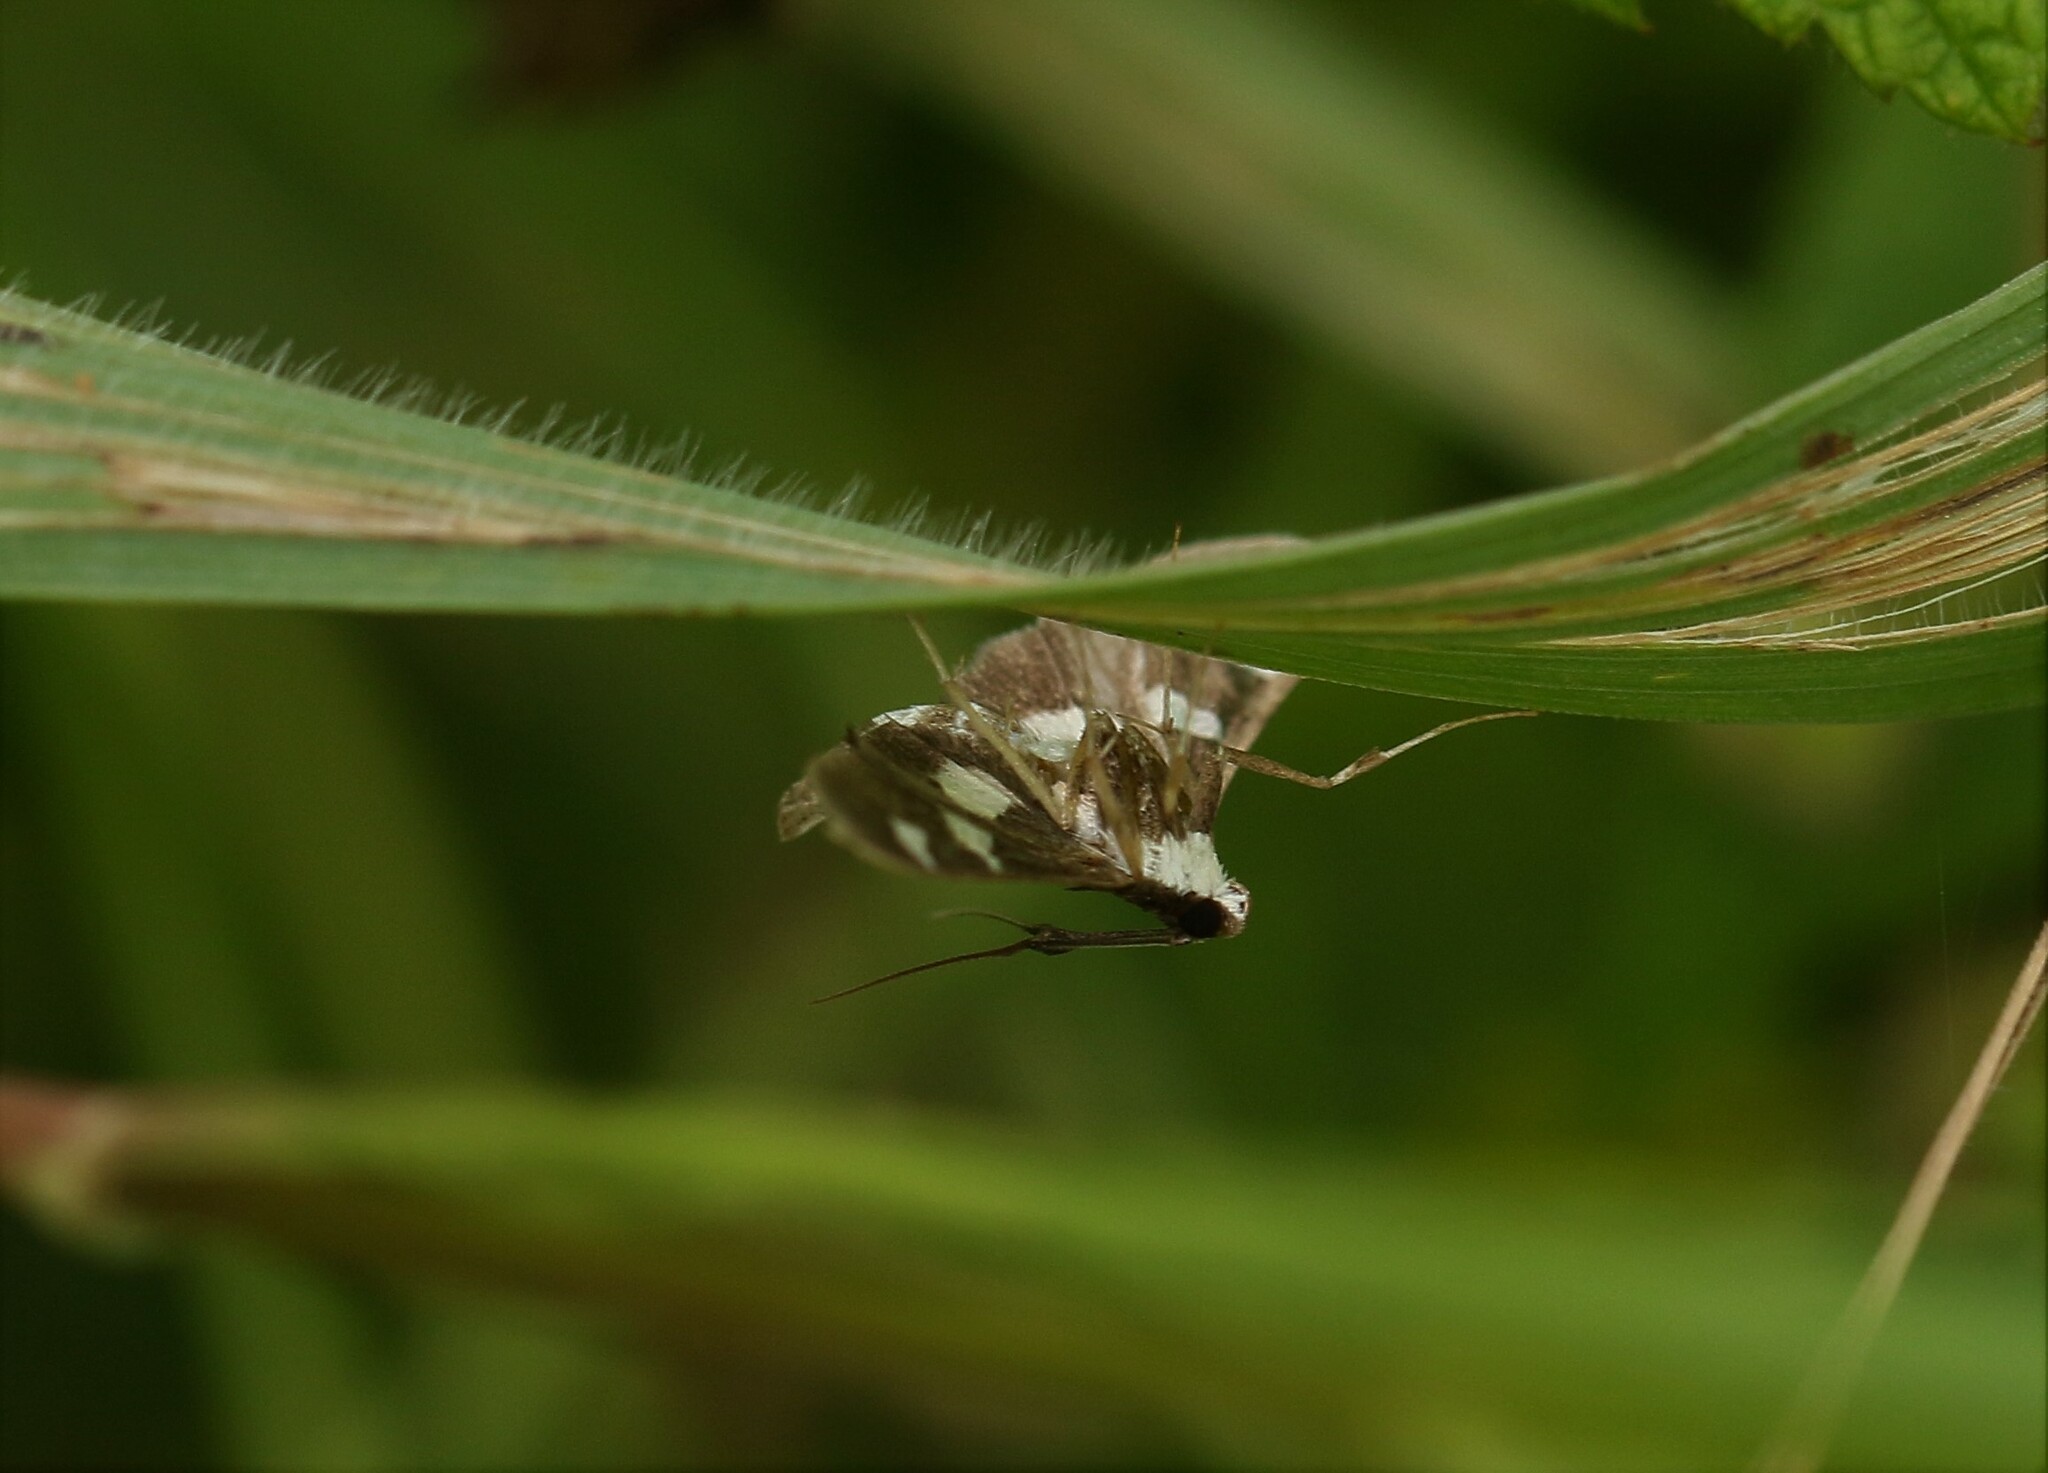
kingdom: Animalia
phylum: Arthropoda
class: Insecta
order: Lepidoptera
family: Crambidae
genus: Desmia
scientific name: Desmia
